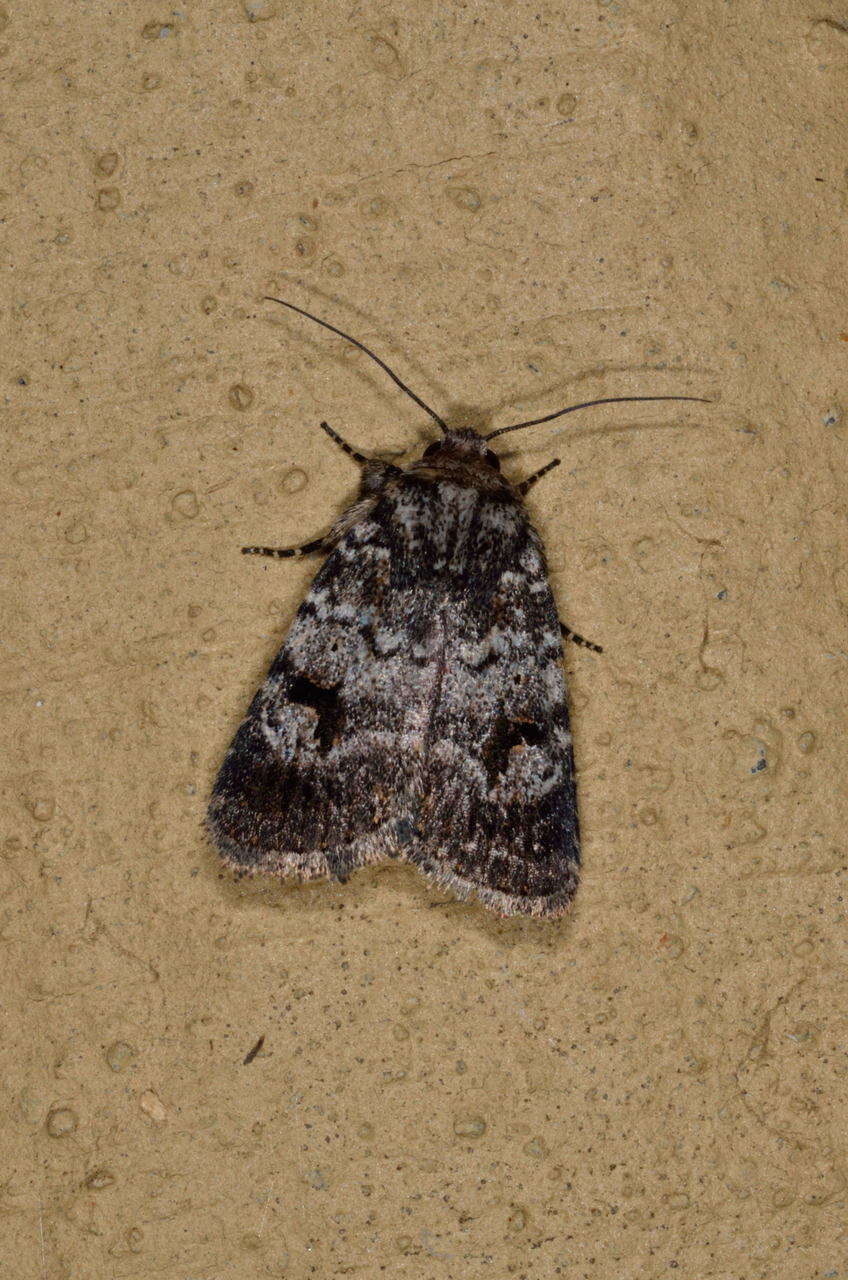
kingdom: Animalia
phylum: Arthropoda
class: Insecta
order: Lepidoptera
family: Noctuidae
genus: Thoracolopha
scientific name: Thoracolopha verecunda
